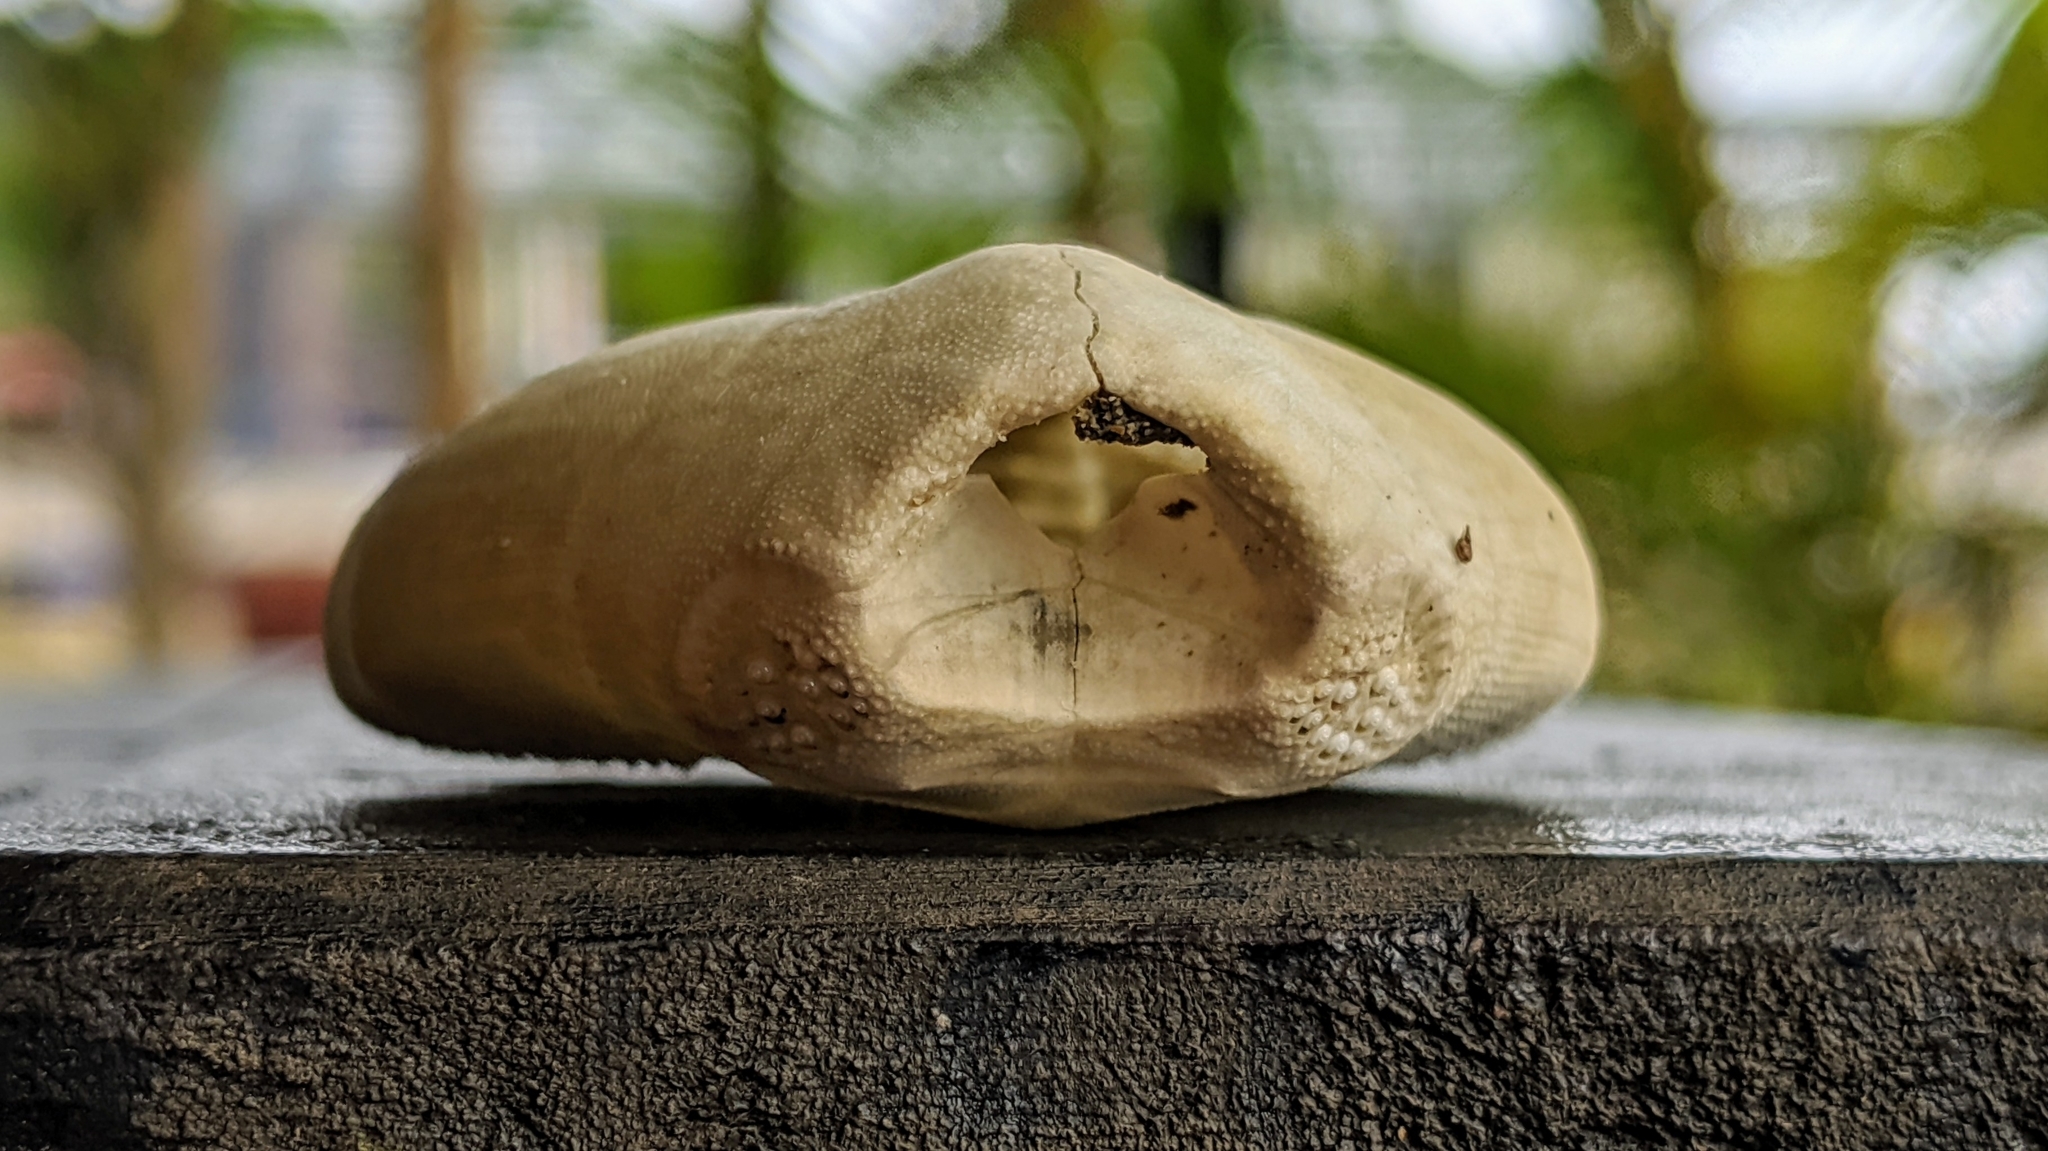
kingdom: Animalia
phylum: Echinodermata
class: Echinoidea
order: Spatangoida
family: Loveniidae
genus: Lovenia
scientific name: Lovenia elongata
